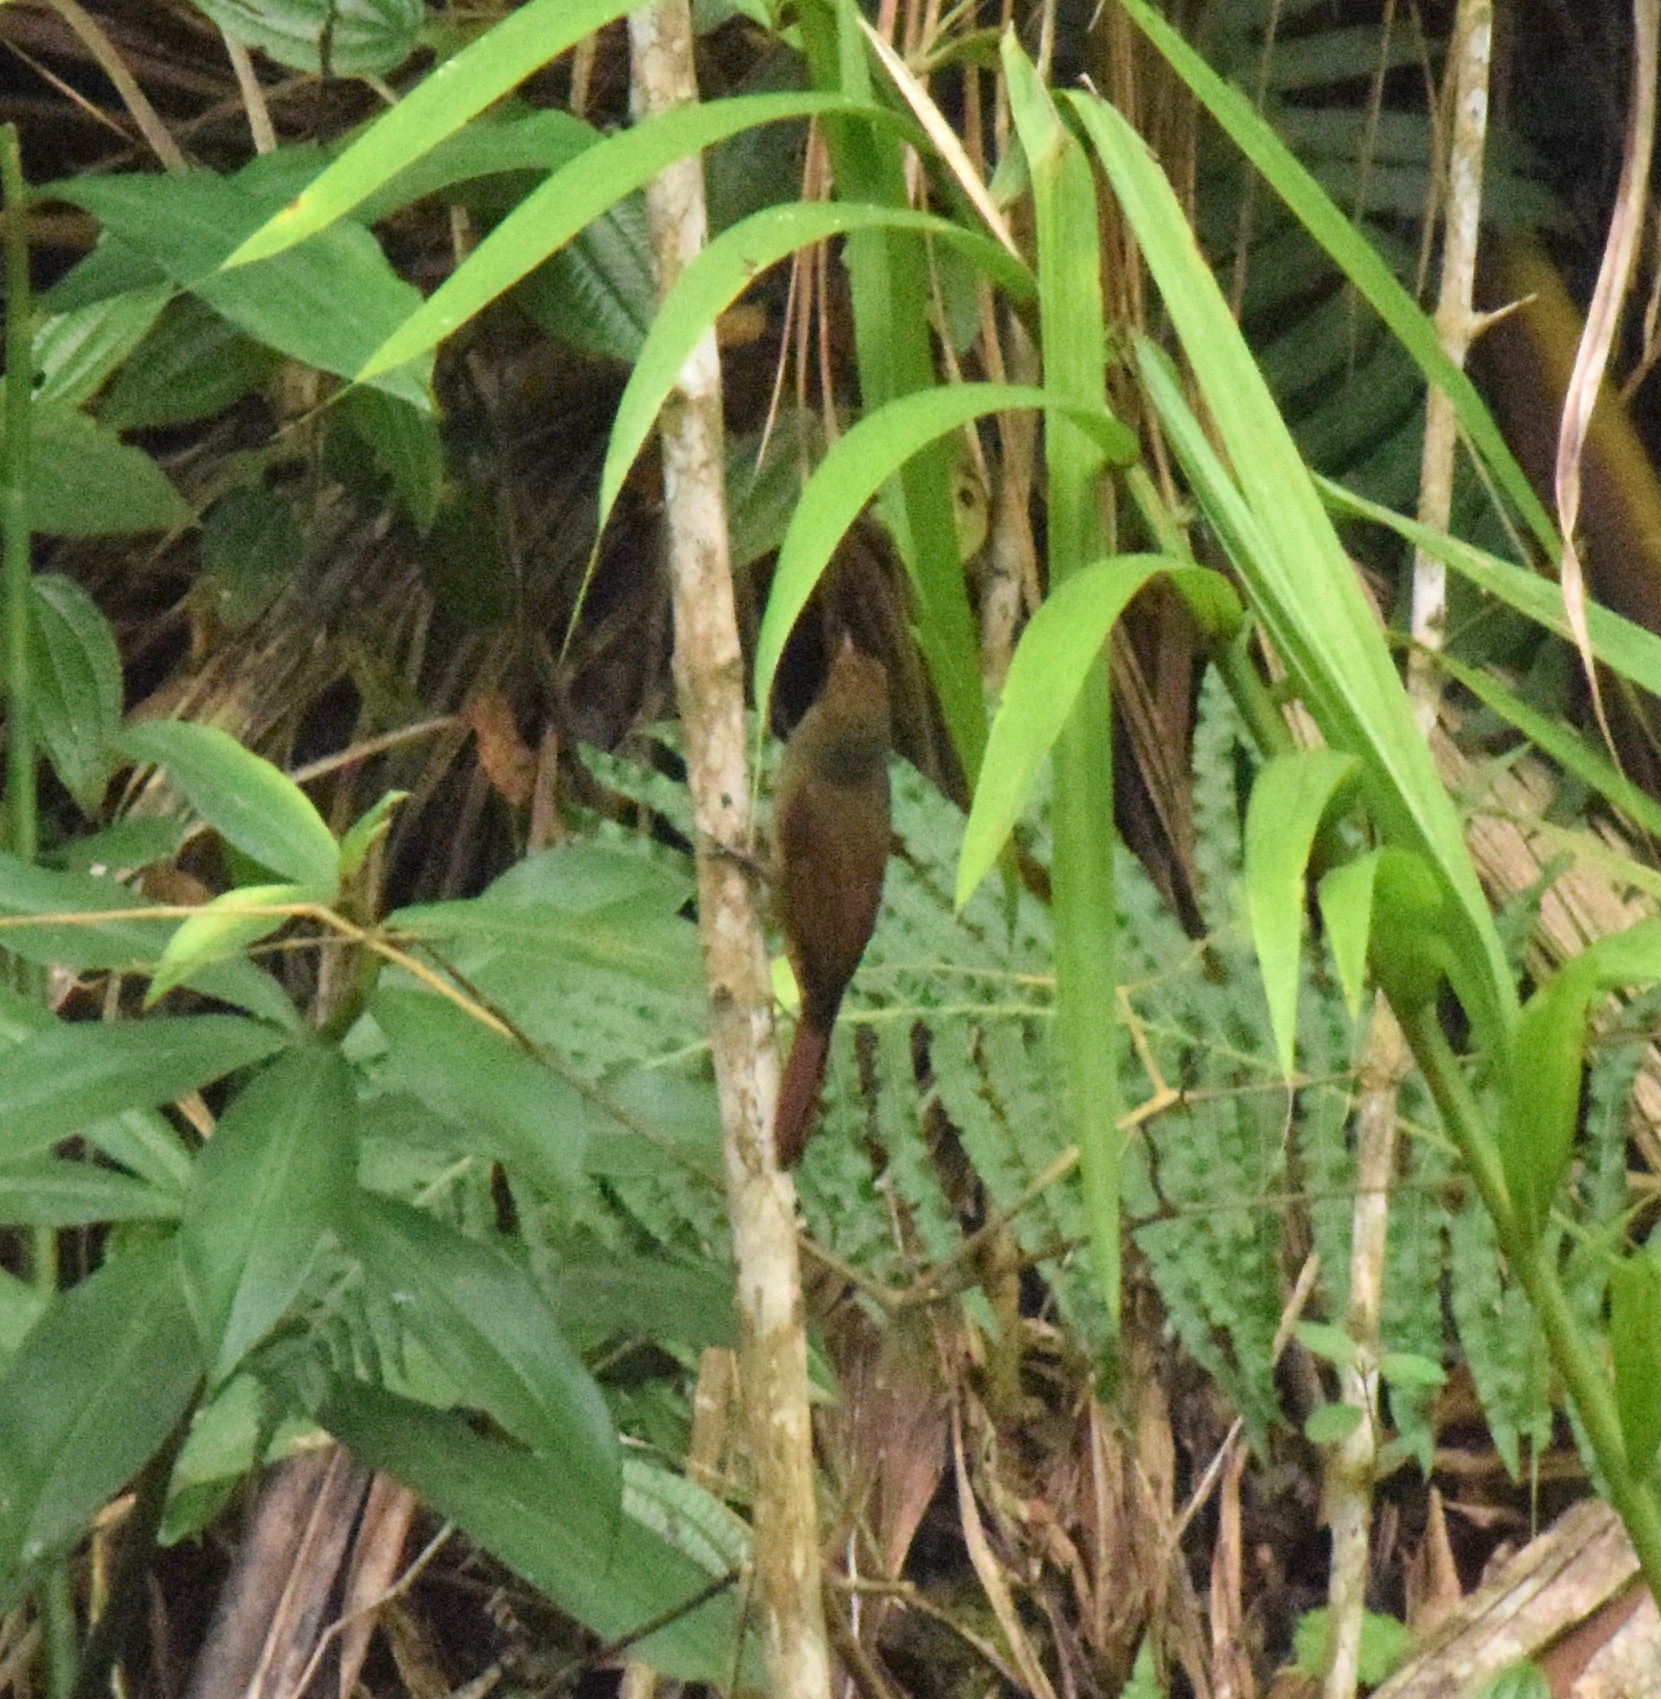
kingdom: Animalia
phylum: Chordata
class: Aves
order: Passeriformes
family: Furnariidae
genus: Dendrocincla
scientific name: Dendrocincla fuliginosa
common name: Plain-brown woodcreeper
